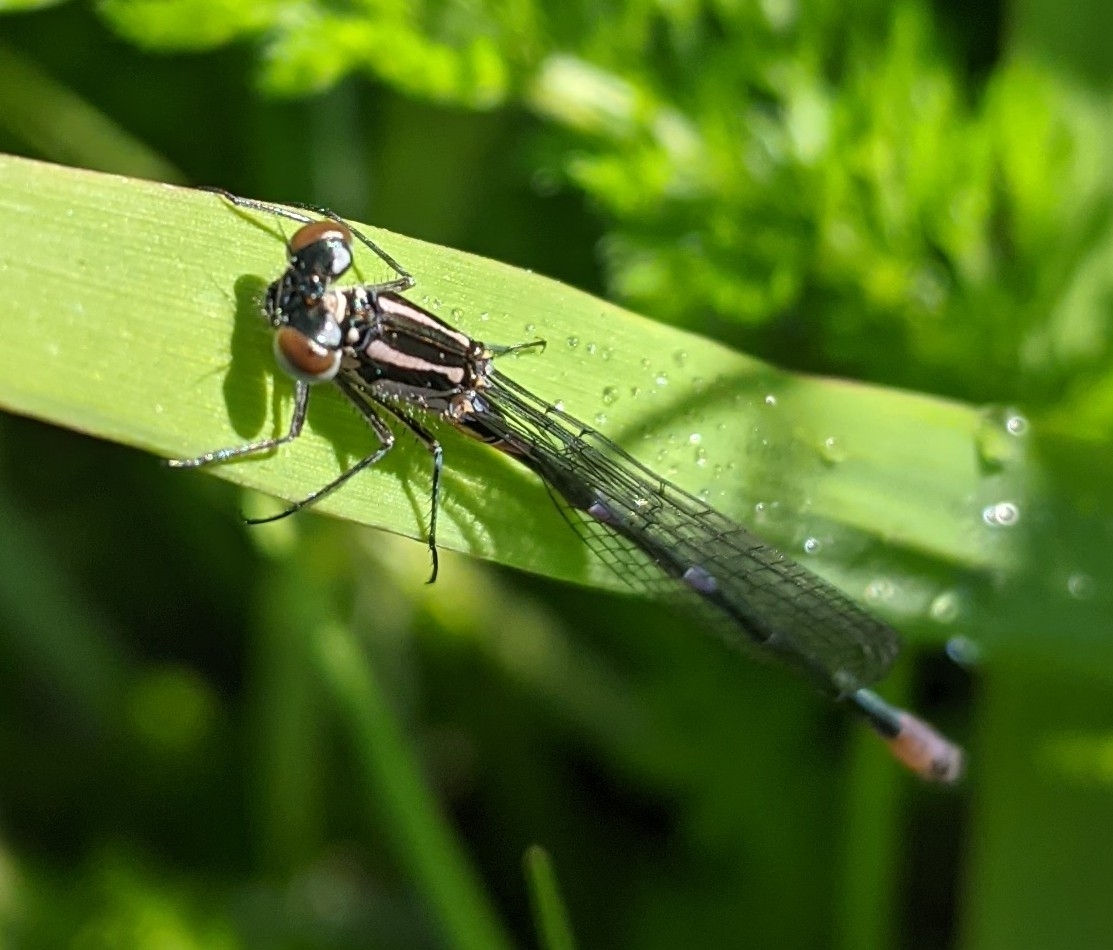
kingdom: Animalia
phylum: Arthropoda
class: Insecta
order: Odonata
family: Coenagrionidae
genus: Coenagrion
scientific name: Coenagrion pulchellum
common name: Variable bluet
